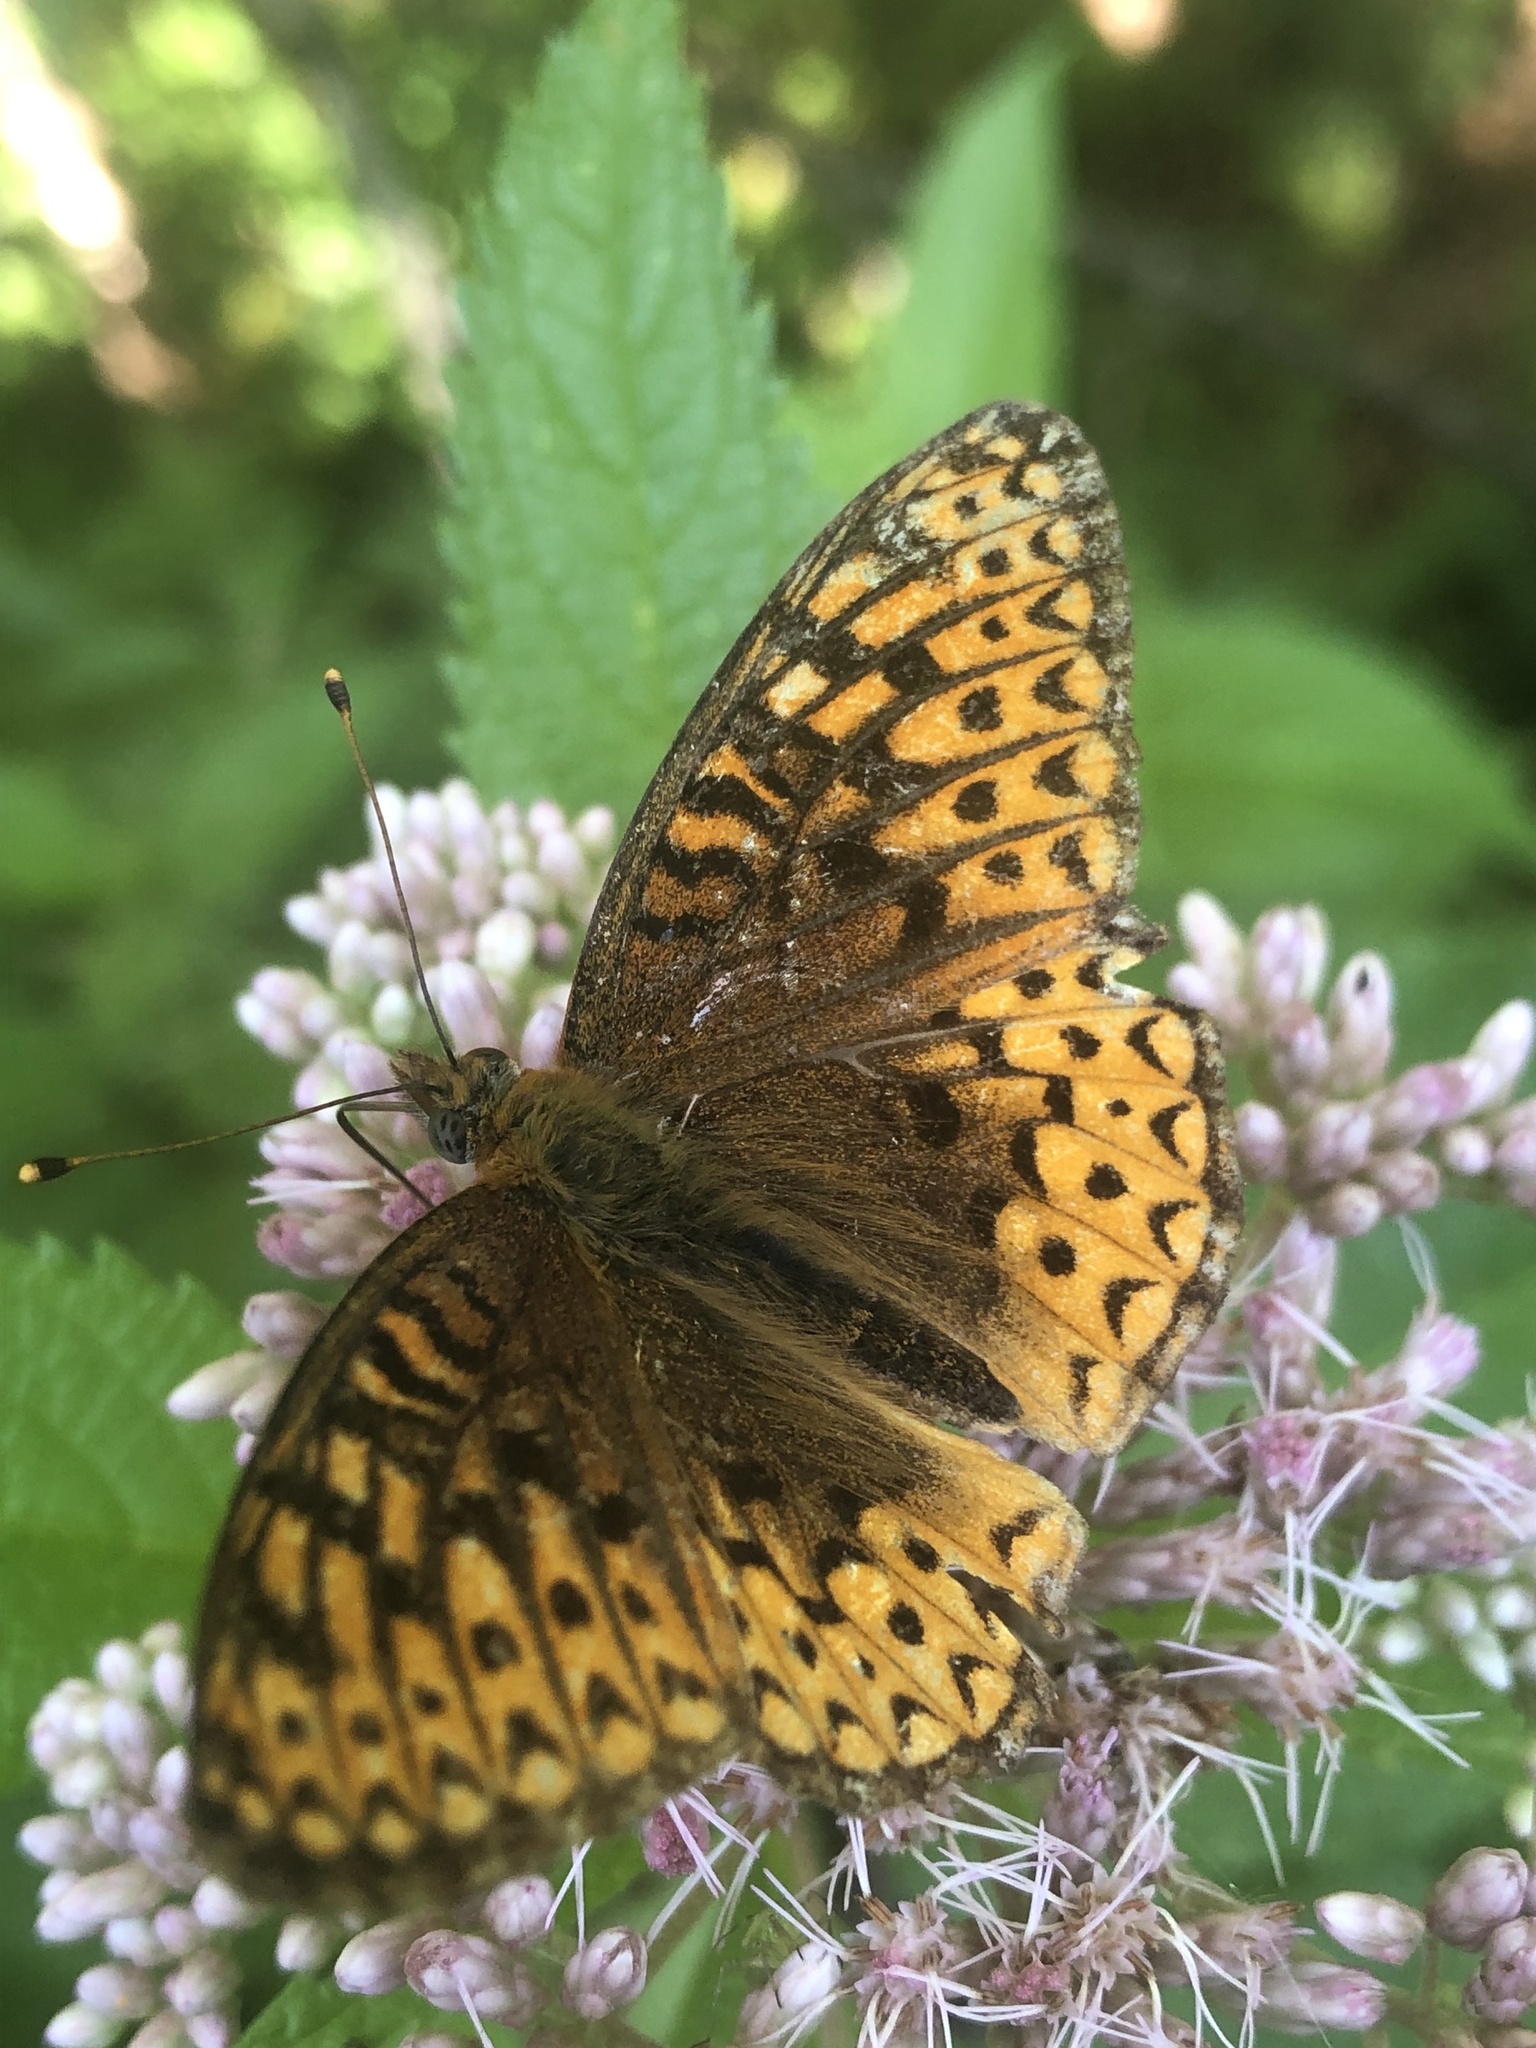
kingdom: Animalia
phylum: Arthropoda
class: Insecta
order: Lepidoptera
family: Nymphalidae
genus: Speyeria
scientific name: Speyeria atlantis
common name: Atlantis fritillary
